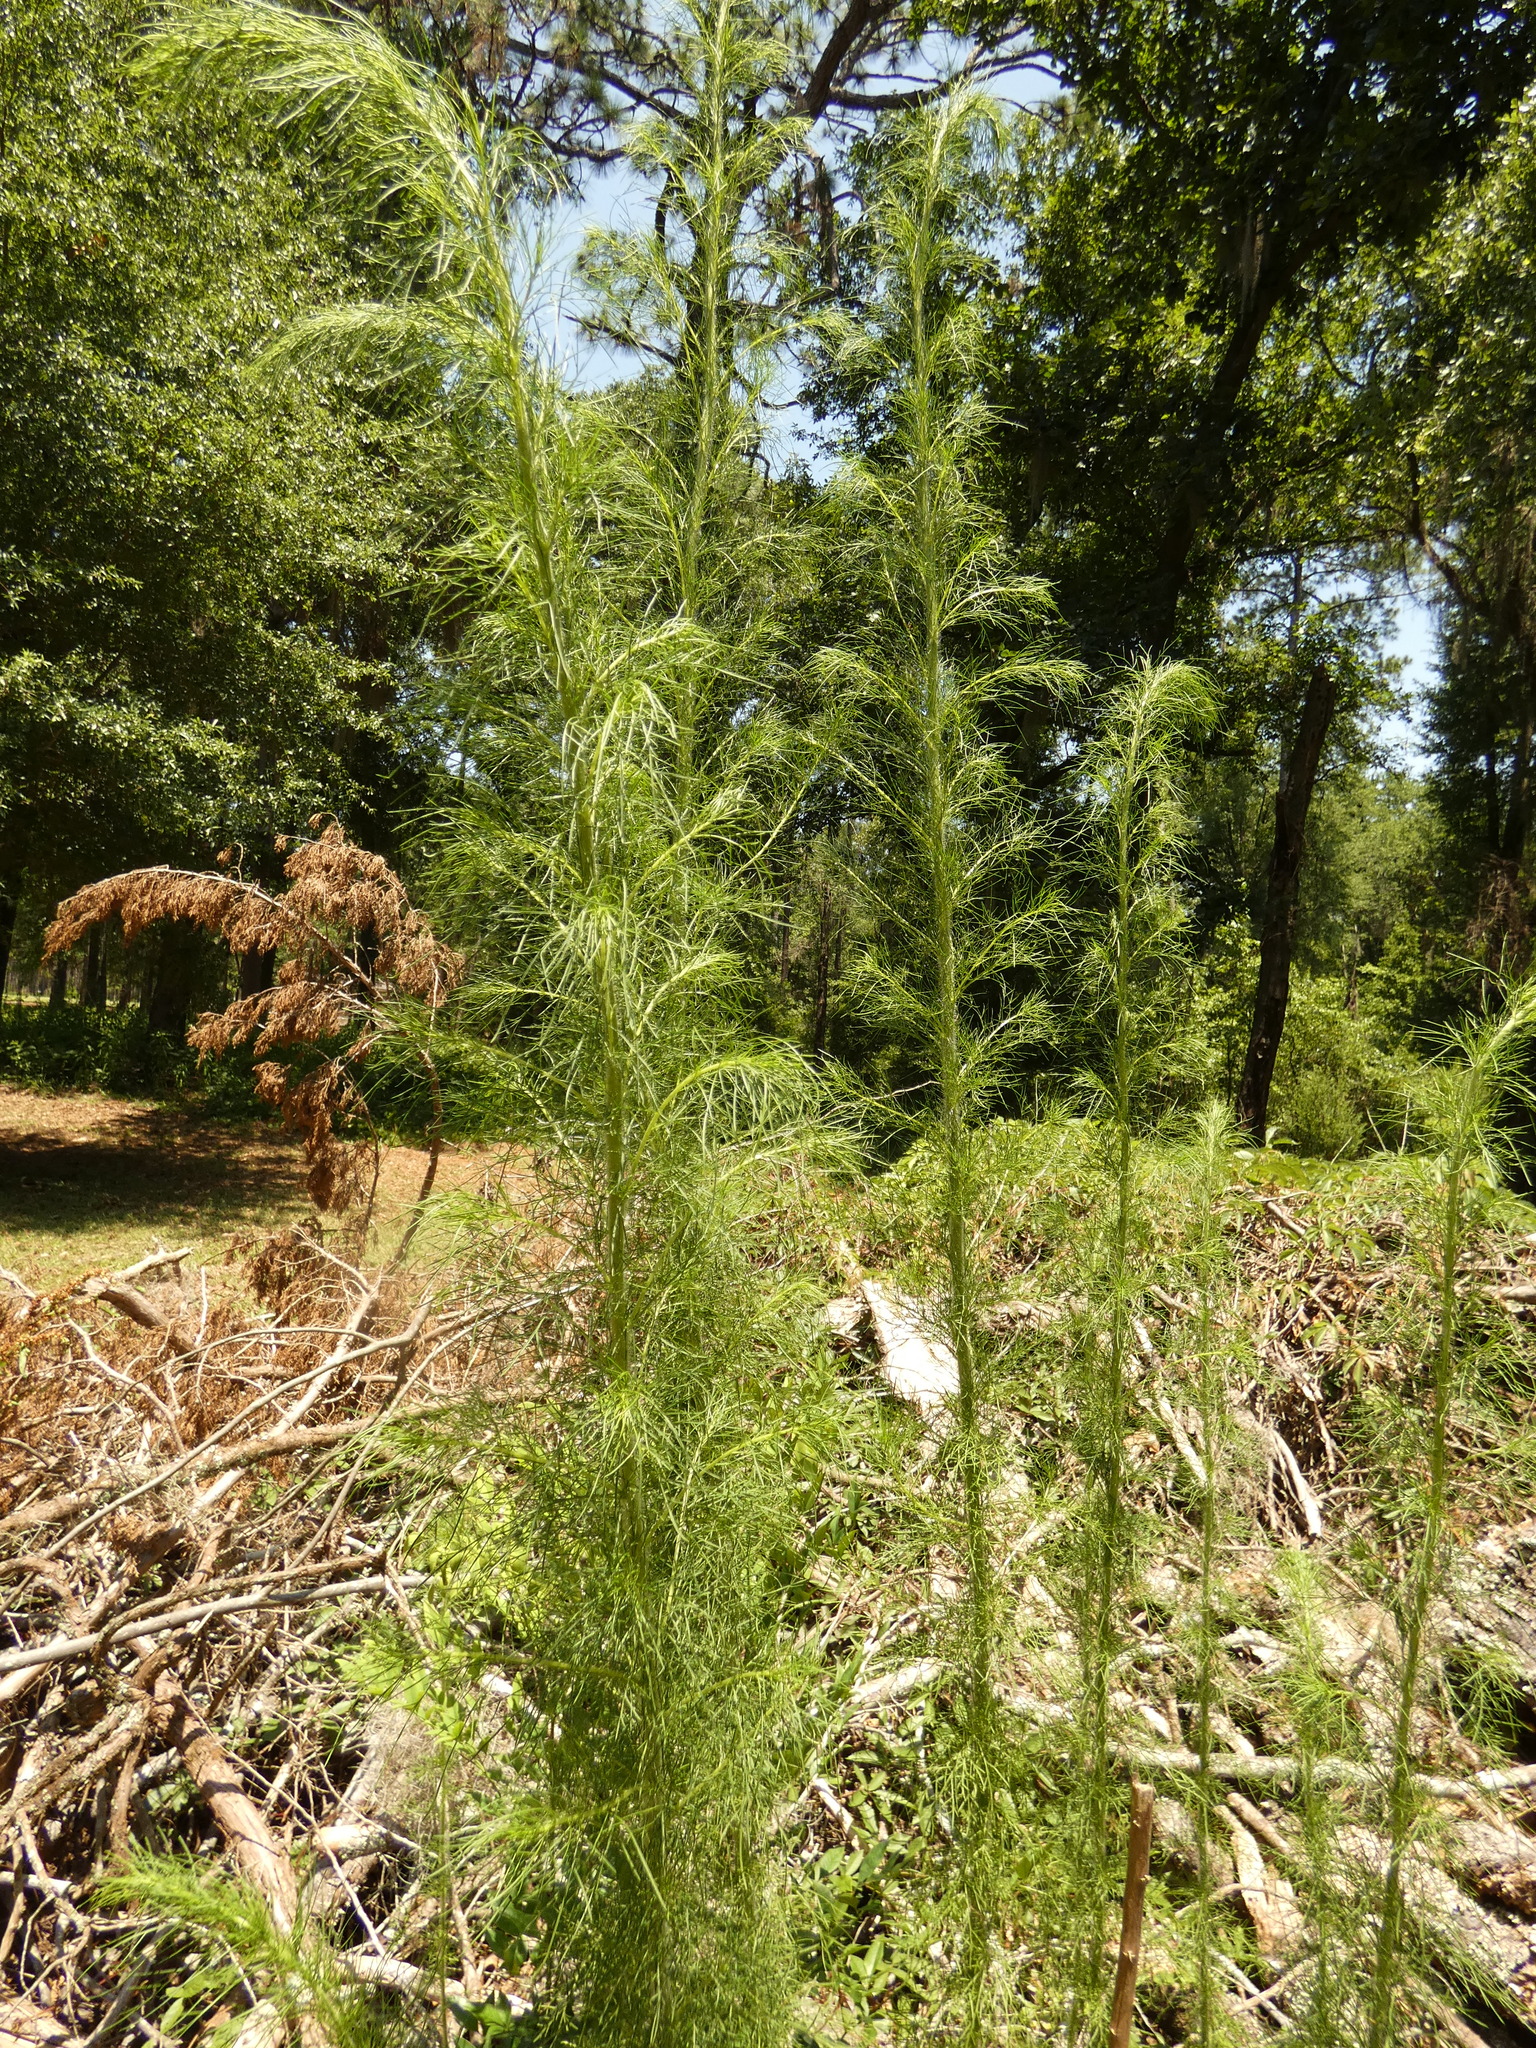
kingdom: Plantae
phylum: Tracheophyta
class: Magnoliopsida
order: Asterales
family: Asteraceae
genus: Eupatorium
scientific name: Eupatorium capillifolium
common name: Dog-fennel
